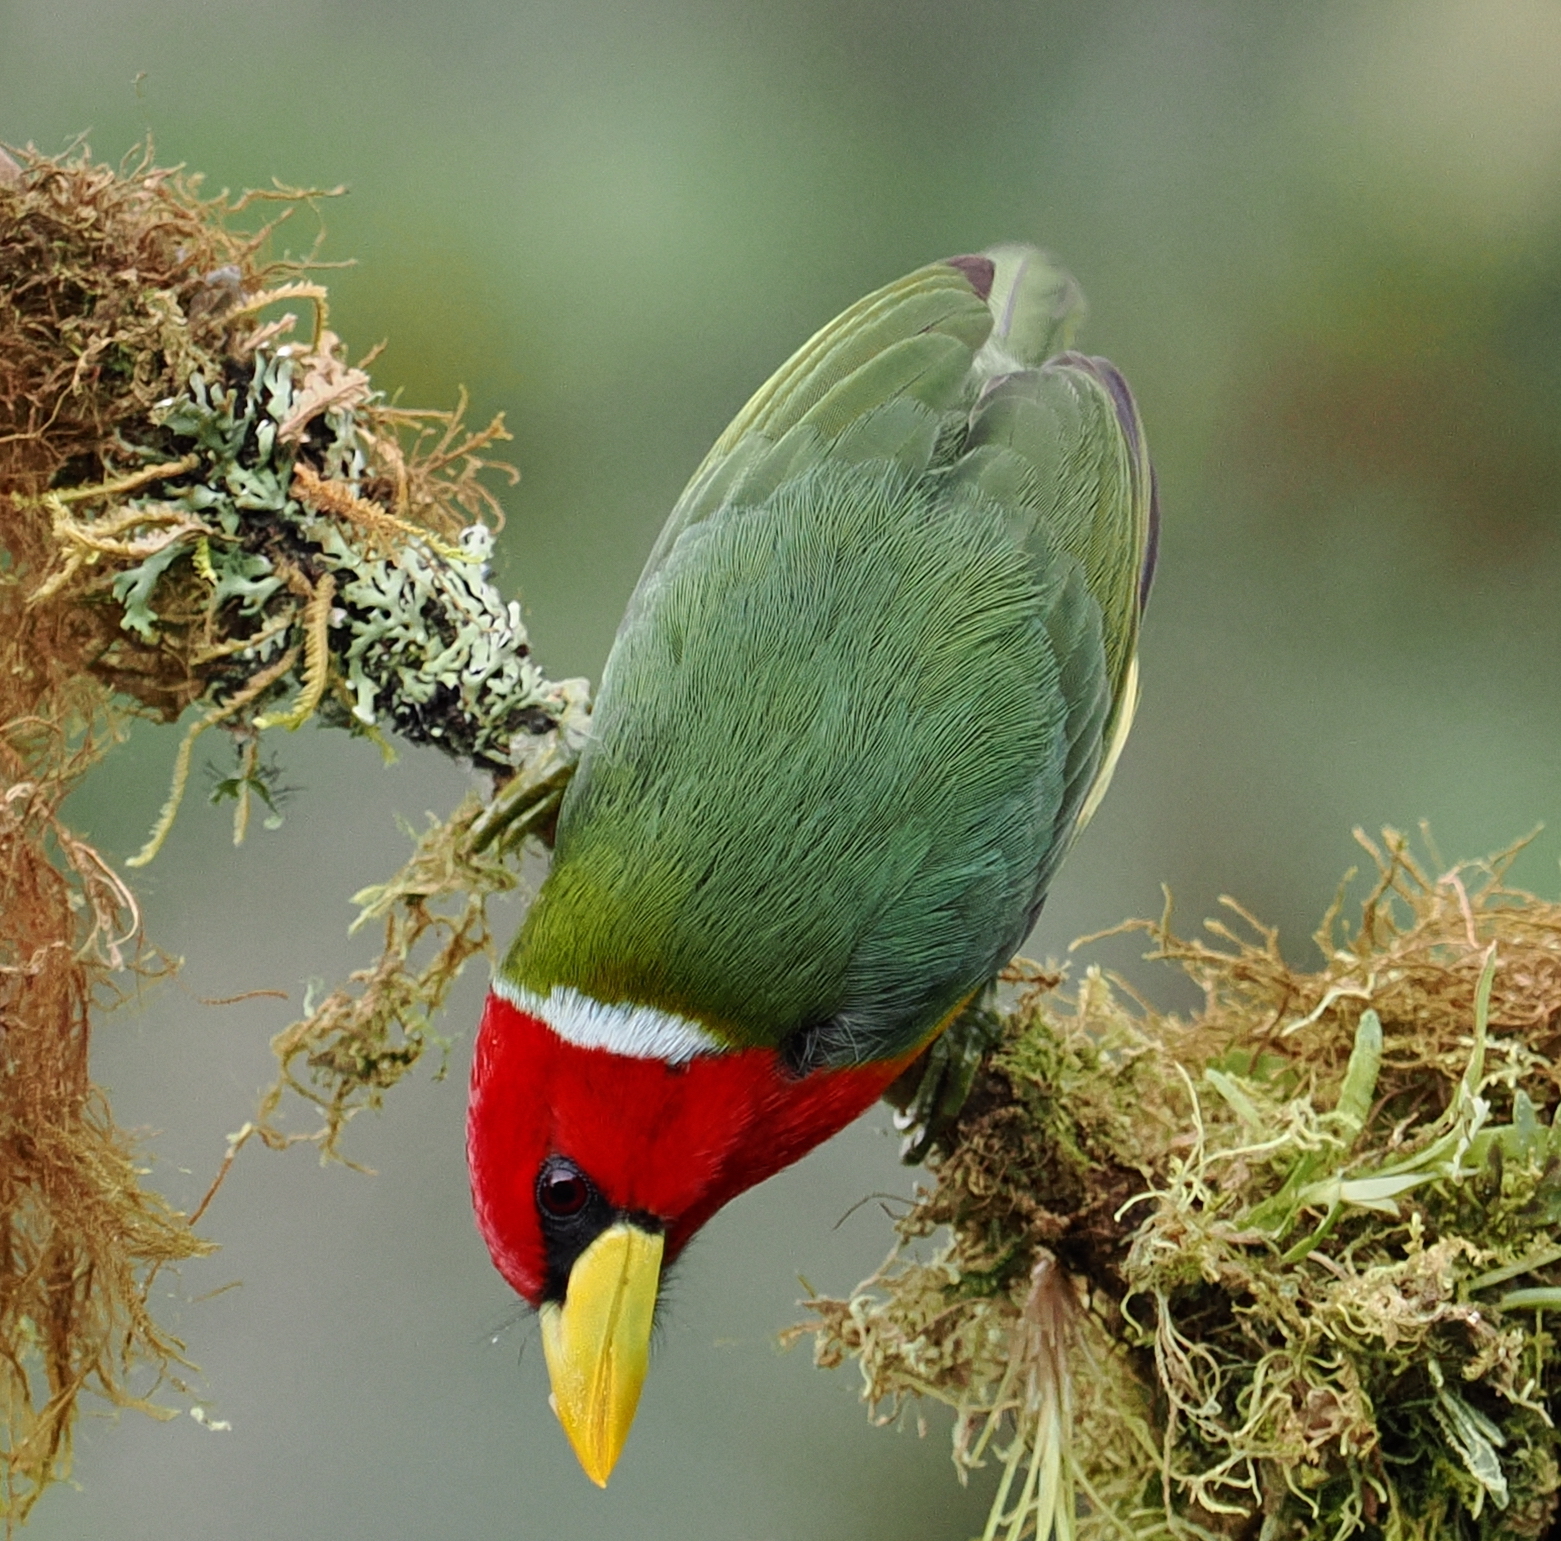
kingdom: Animalia
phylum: Chordata
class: Aves
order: Piciformes
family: Capitonidae
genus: Eubucco
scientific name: Eubucco bourcierii
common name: Red-headed barbet
